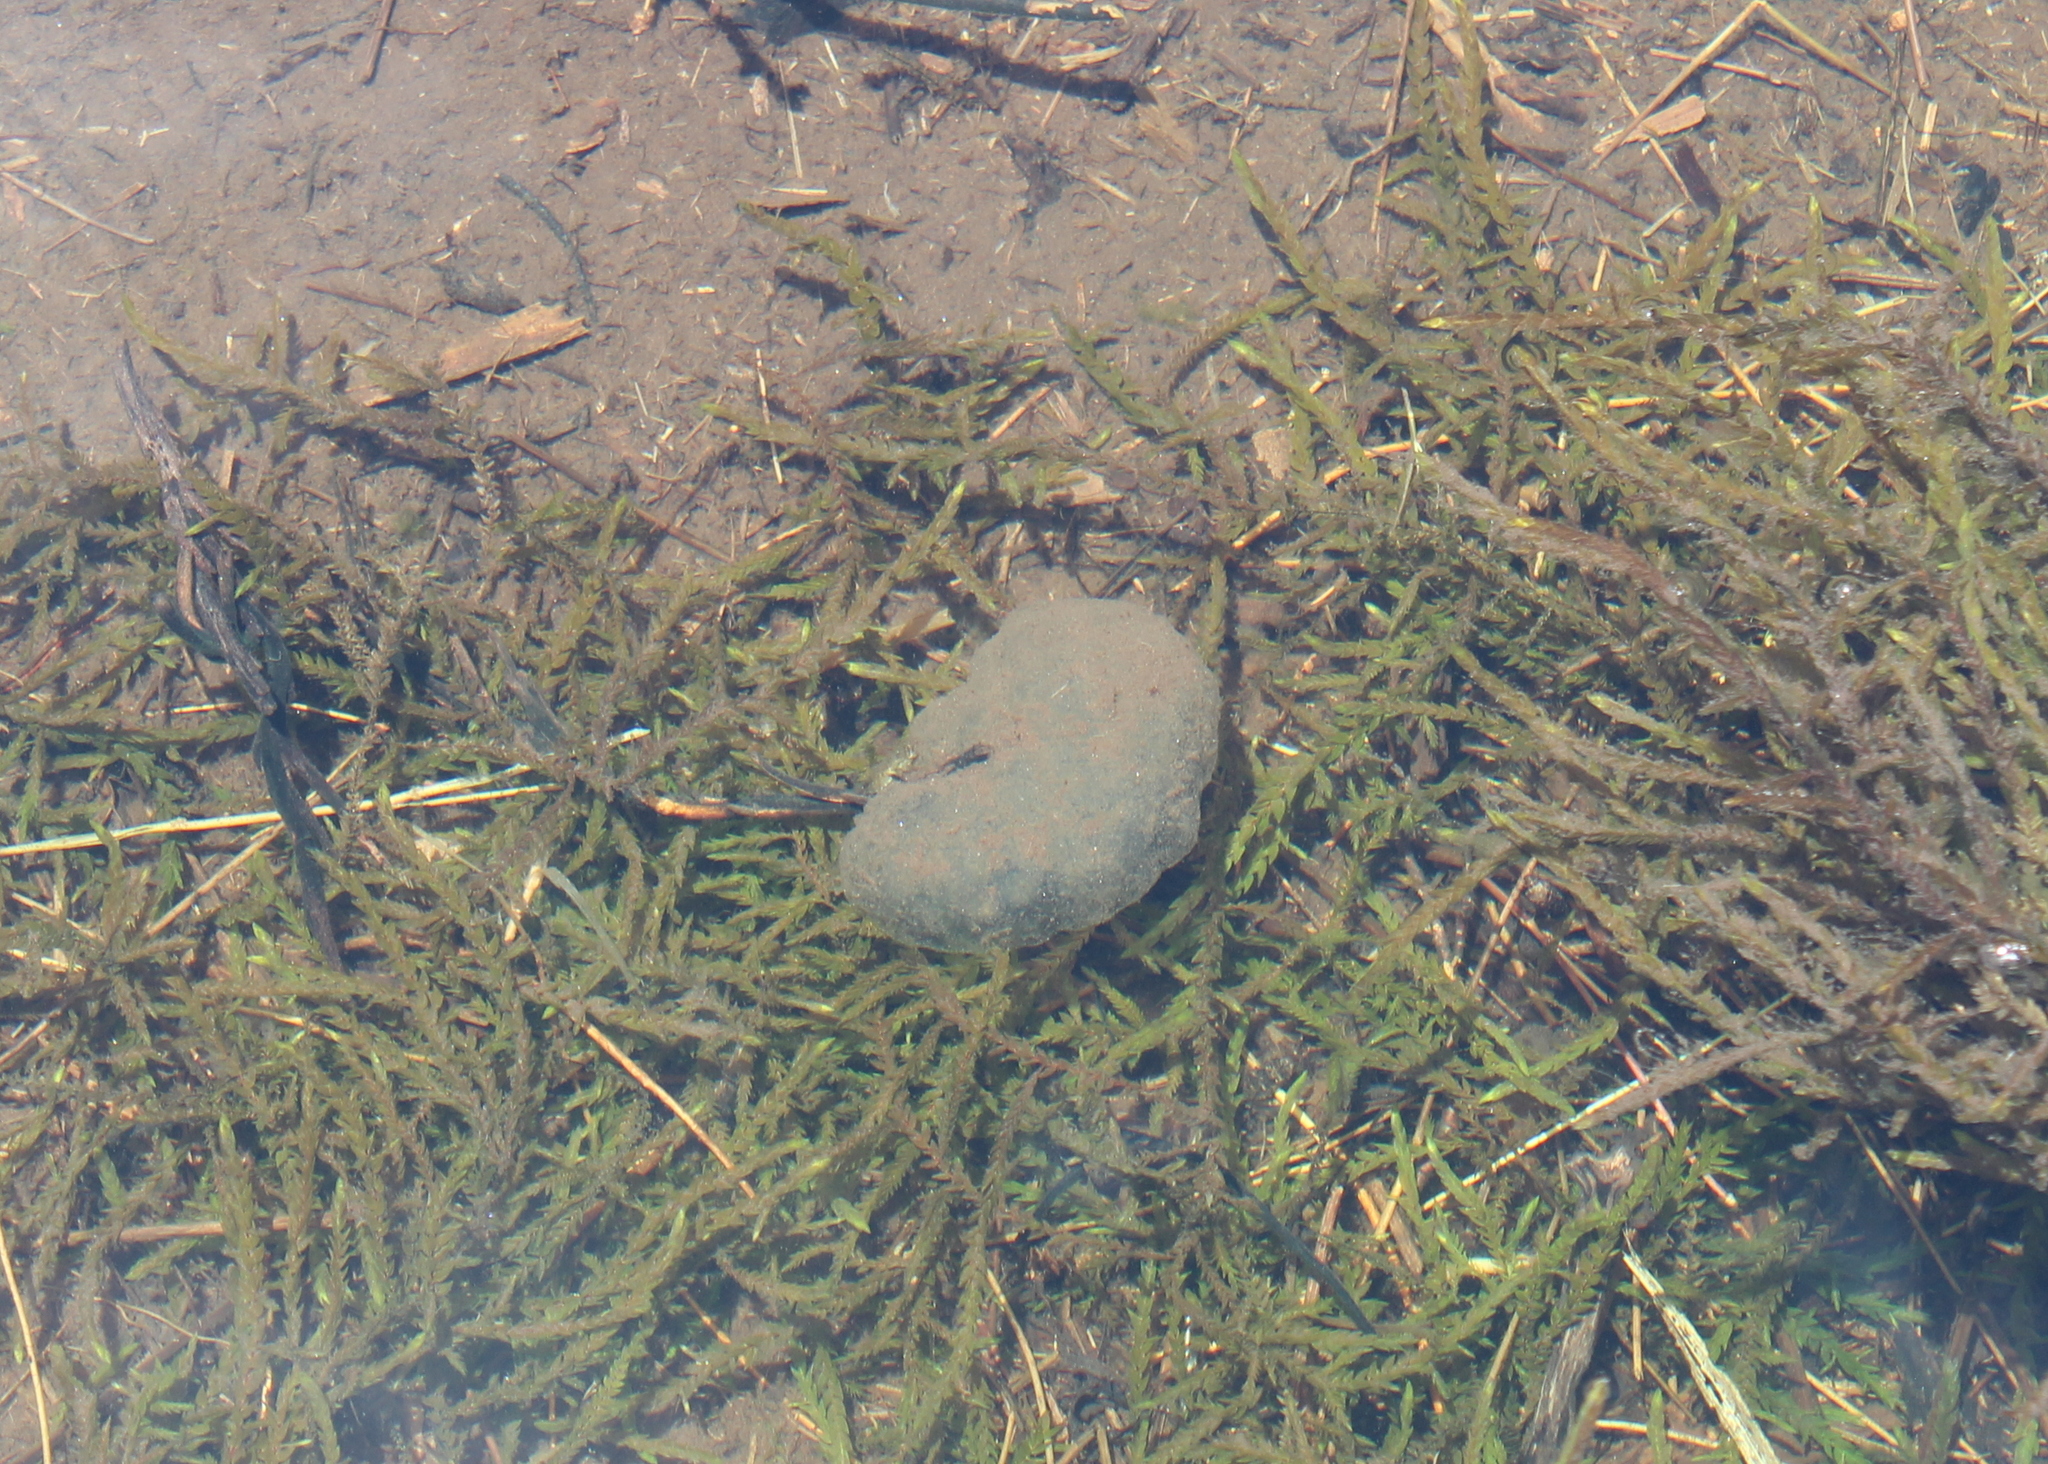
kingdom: Animalia
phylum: Chordata
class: Amphibia
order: Caudata
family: Ambystomatidae
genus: Ambystoma
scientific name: Ambystoma maculatum
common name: Spotted salamander
